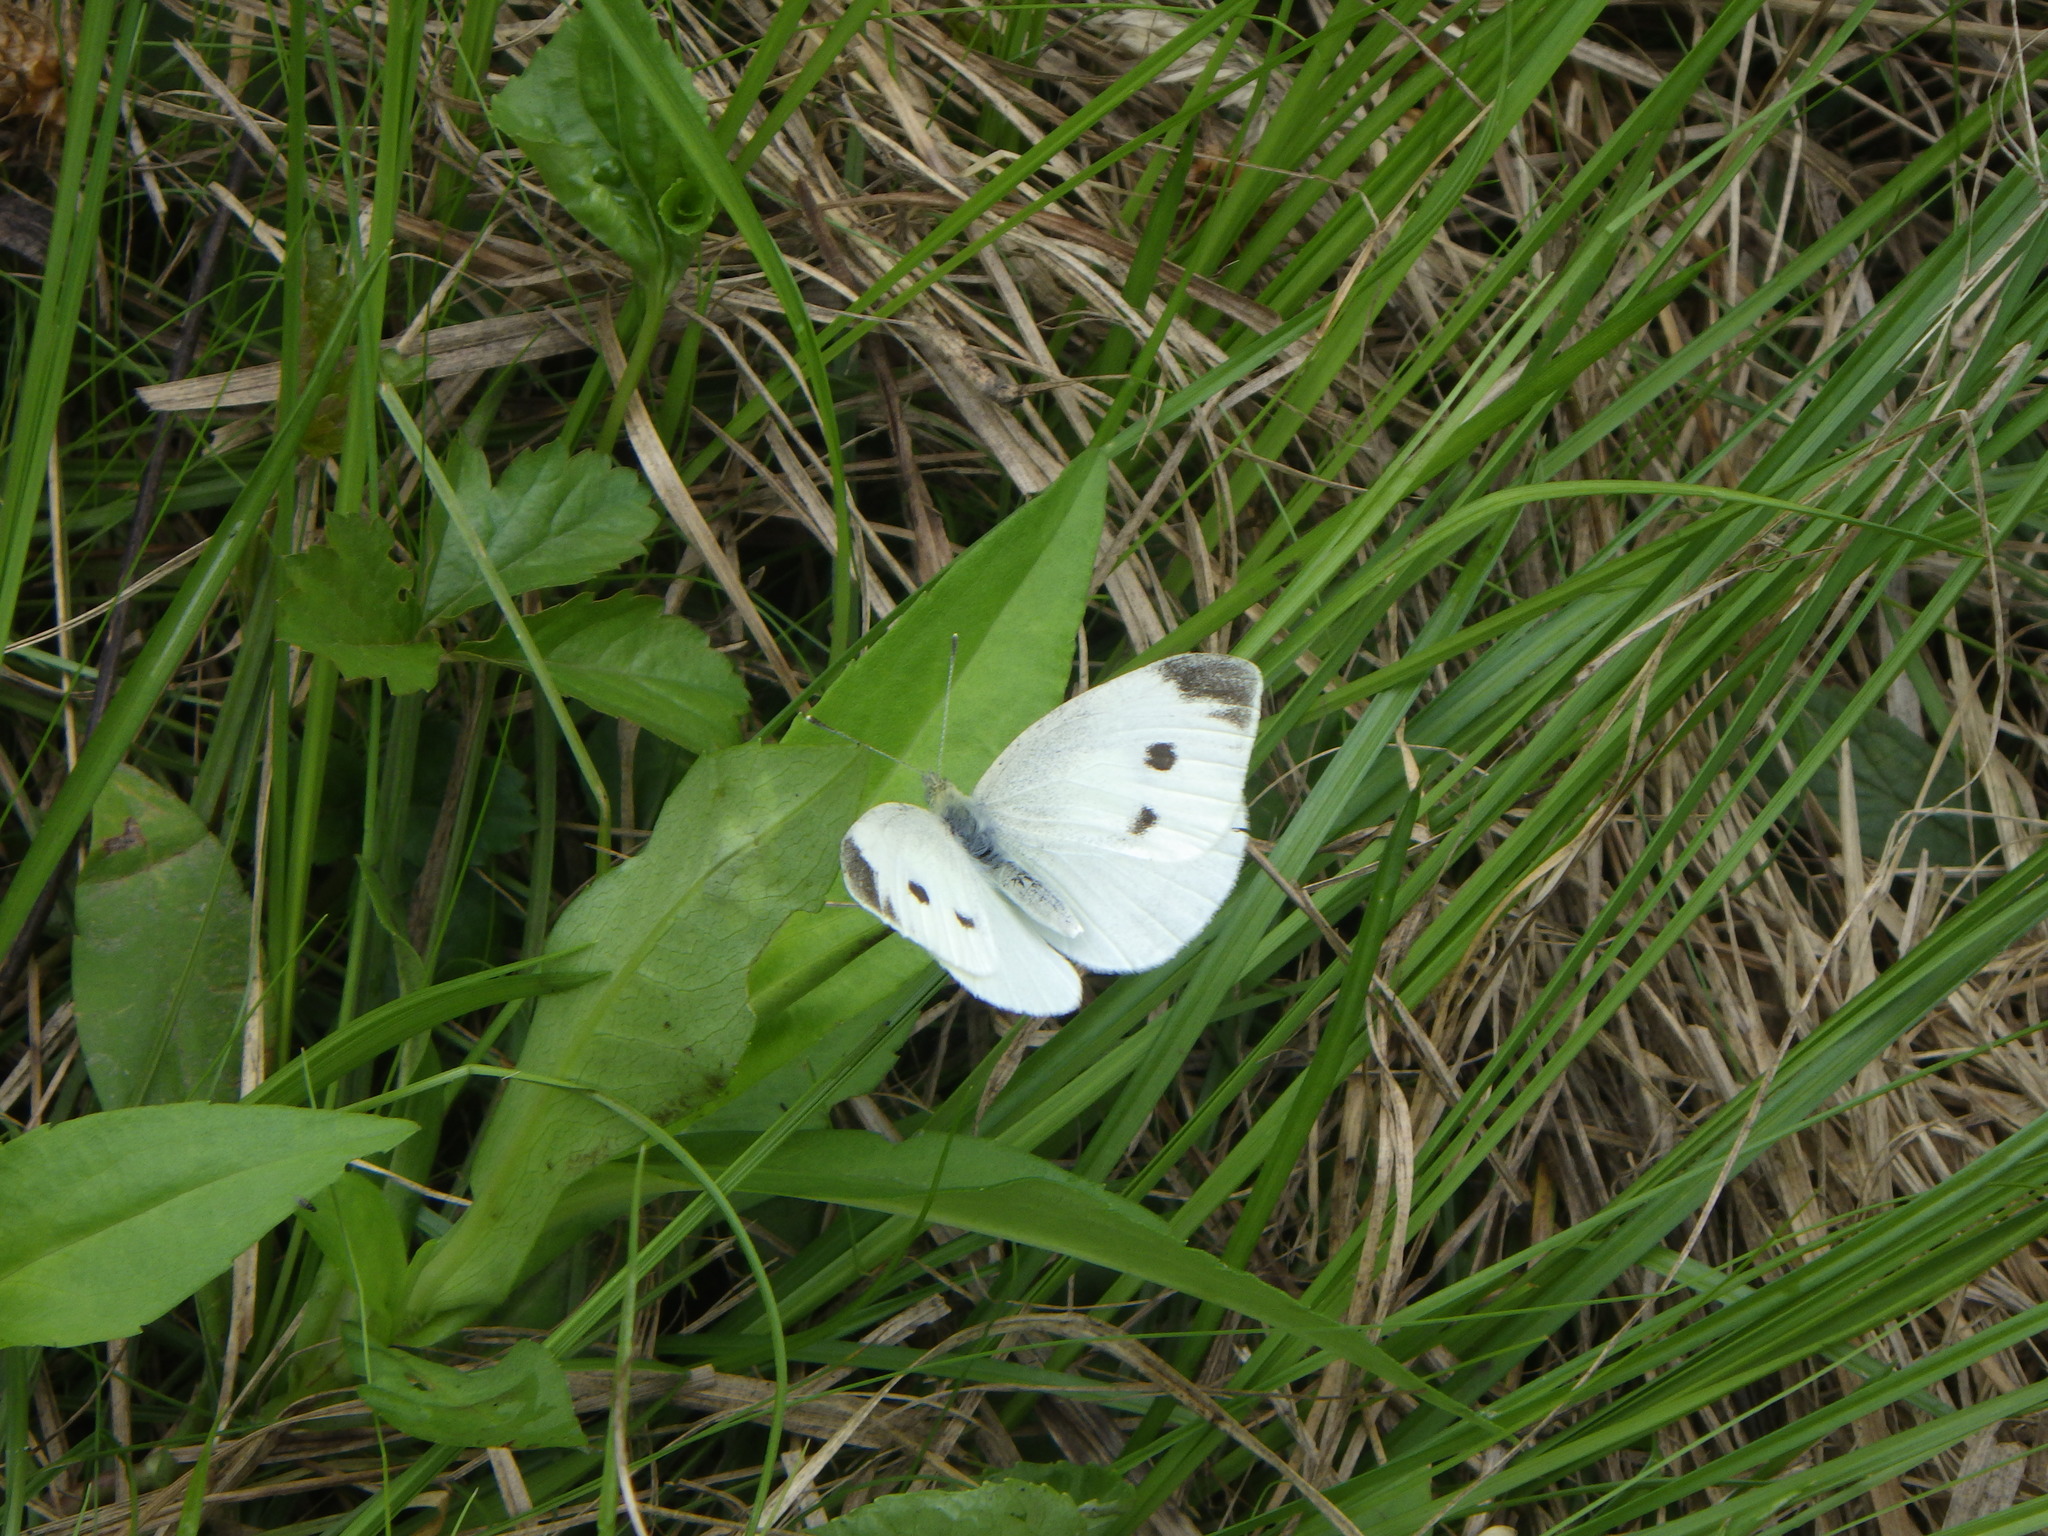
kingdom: Animalia
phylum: Arthropoda
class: Insecta
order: Lepidoptera
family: Pieridae
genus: Pieris
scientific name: Pieris rapae
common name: Small white
